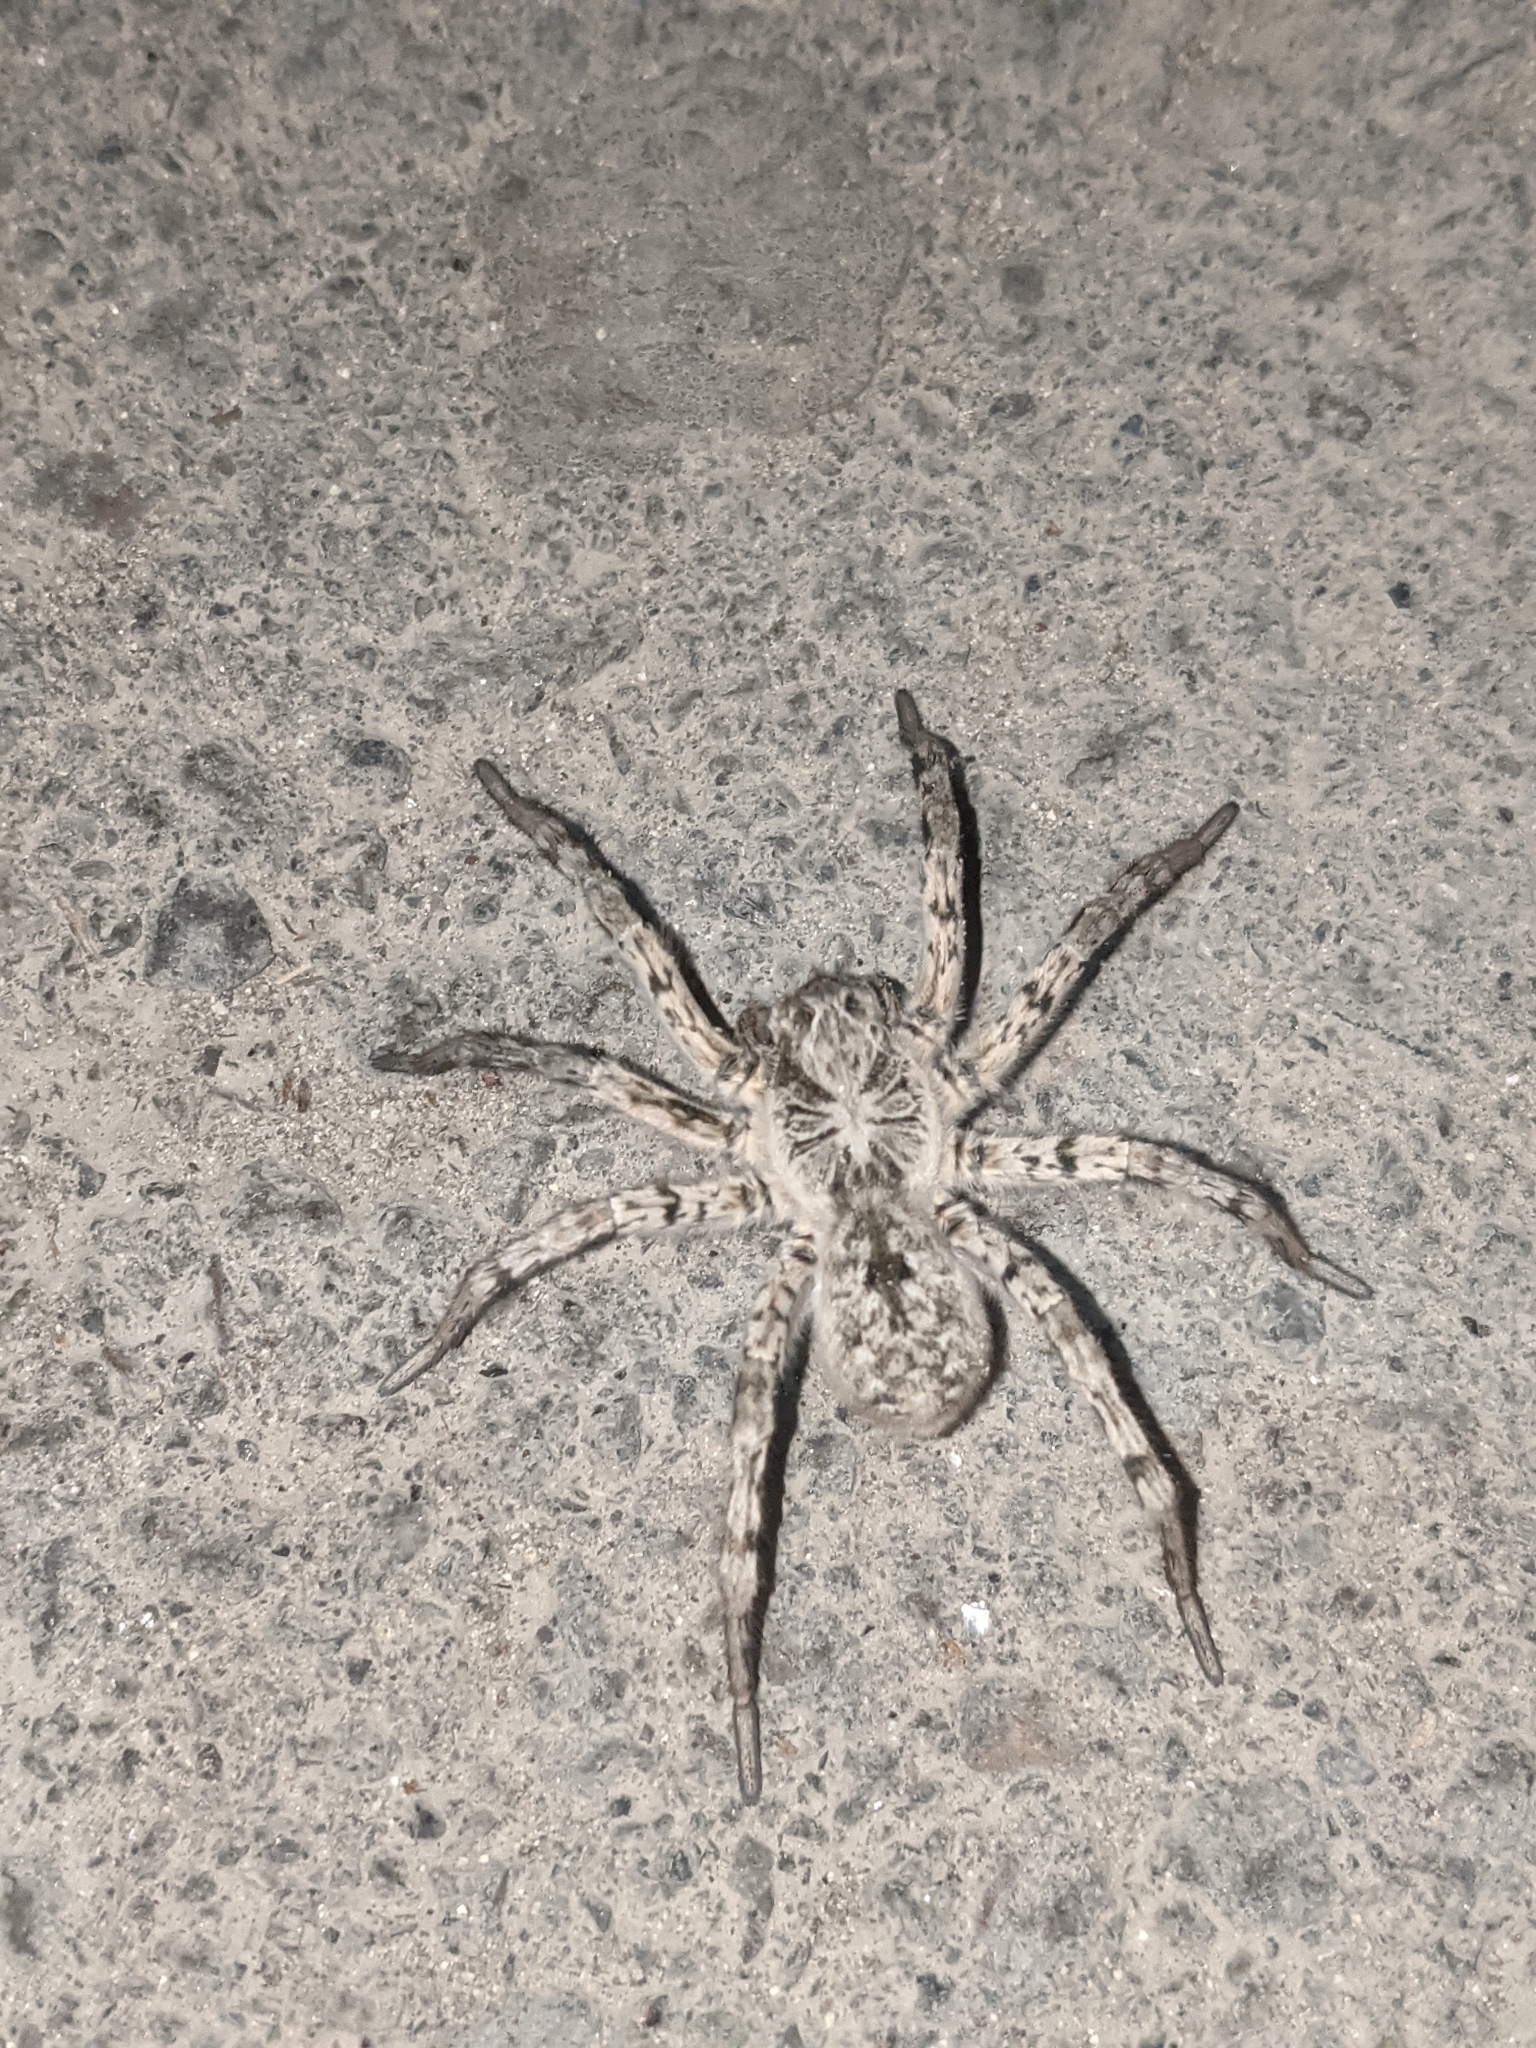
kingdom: Animalia
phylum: Arthropoda
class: Arachnida
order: Araneae
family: Lycosidae
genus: Lycosa
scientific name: Lycosa singoriensis
